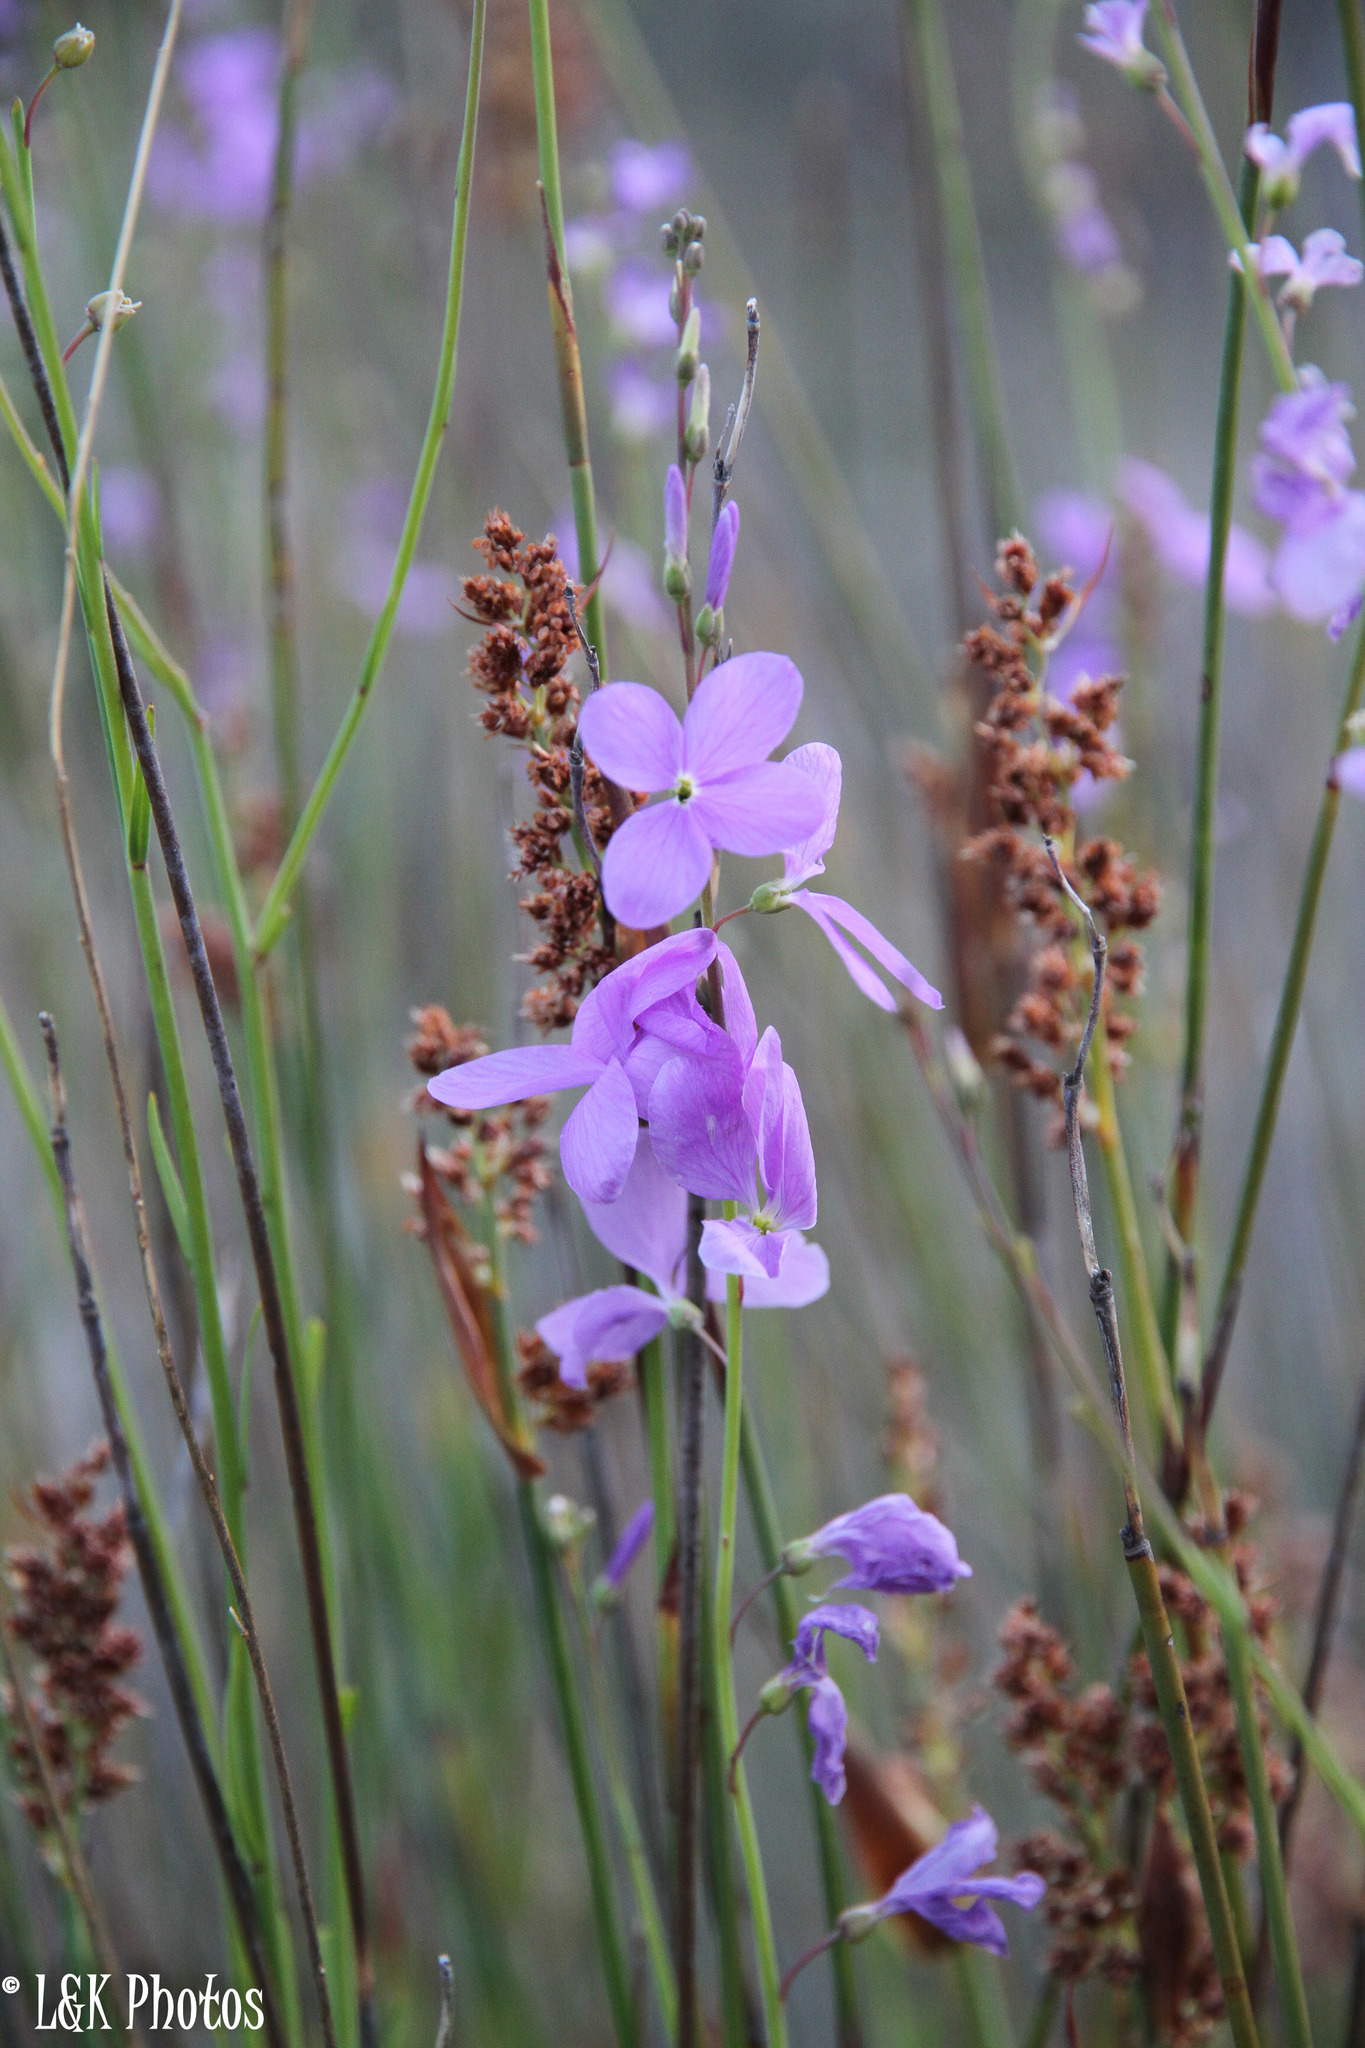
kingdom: Plantae
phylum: Tracheophyta
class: Magnoliopsida
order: Brassicales
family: Brassicaceae
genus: Heliophila
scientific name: Heliophila juncea
